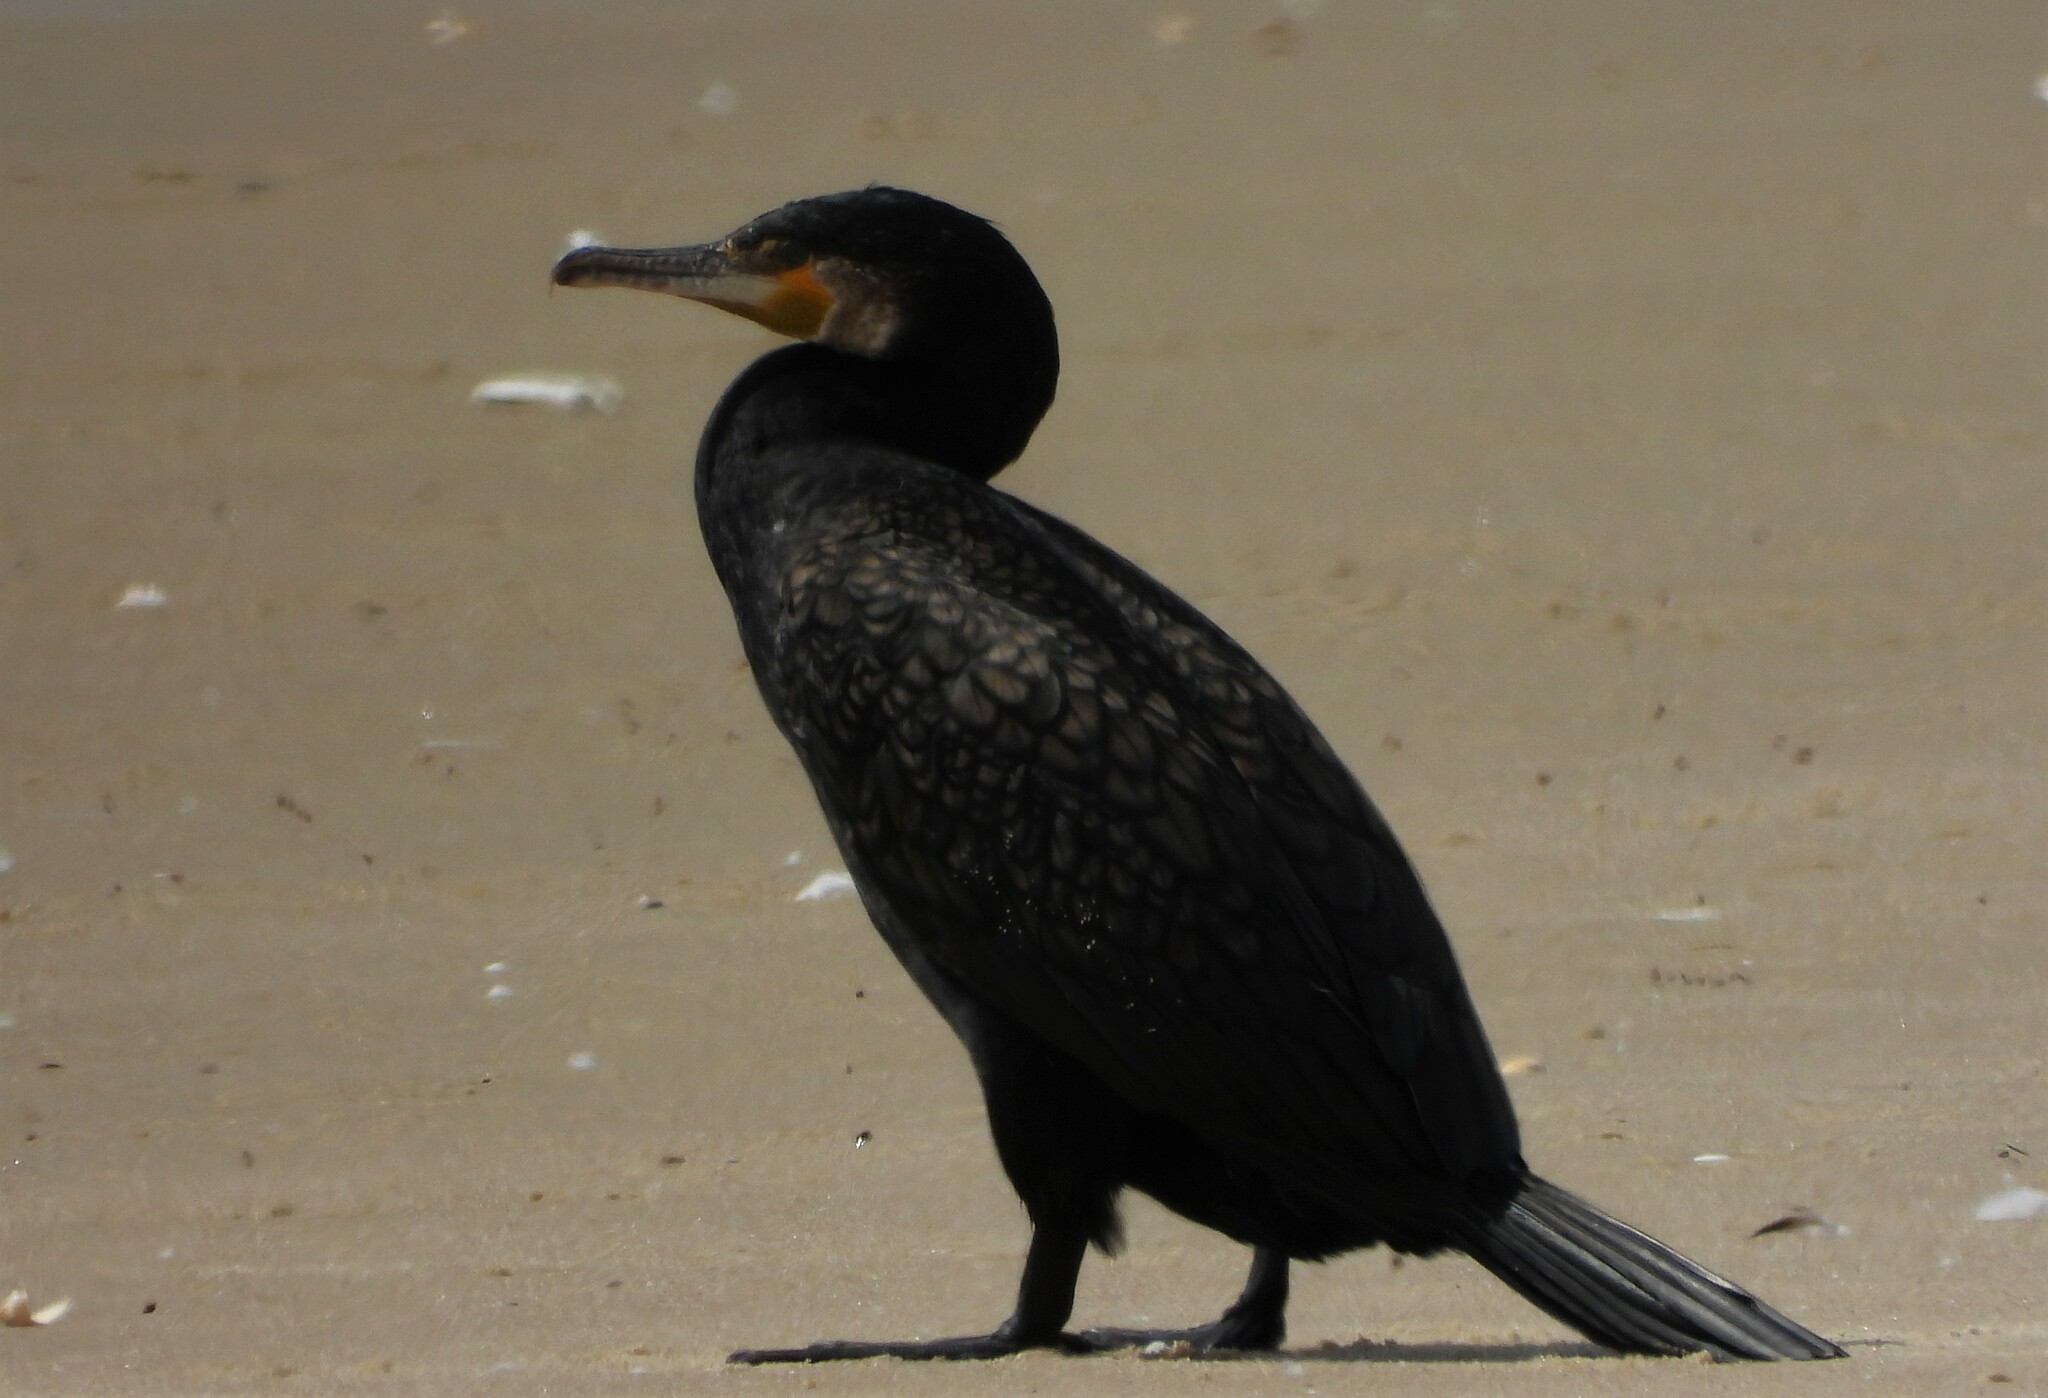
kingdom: Animalia
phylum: Chordata
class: Aves
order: Suliformes
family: Phalacrocoracidae
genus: Phalacrocorax
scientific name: Phalacrocorax carbo
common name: Great cormorant
